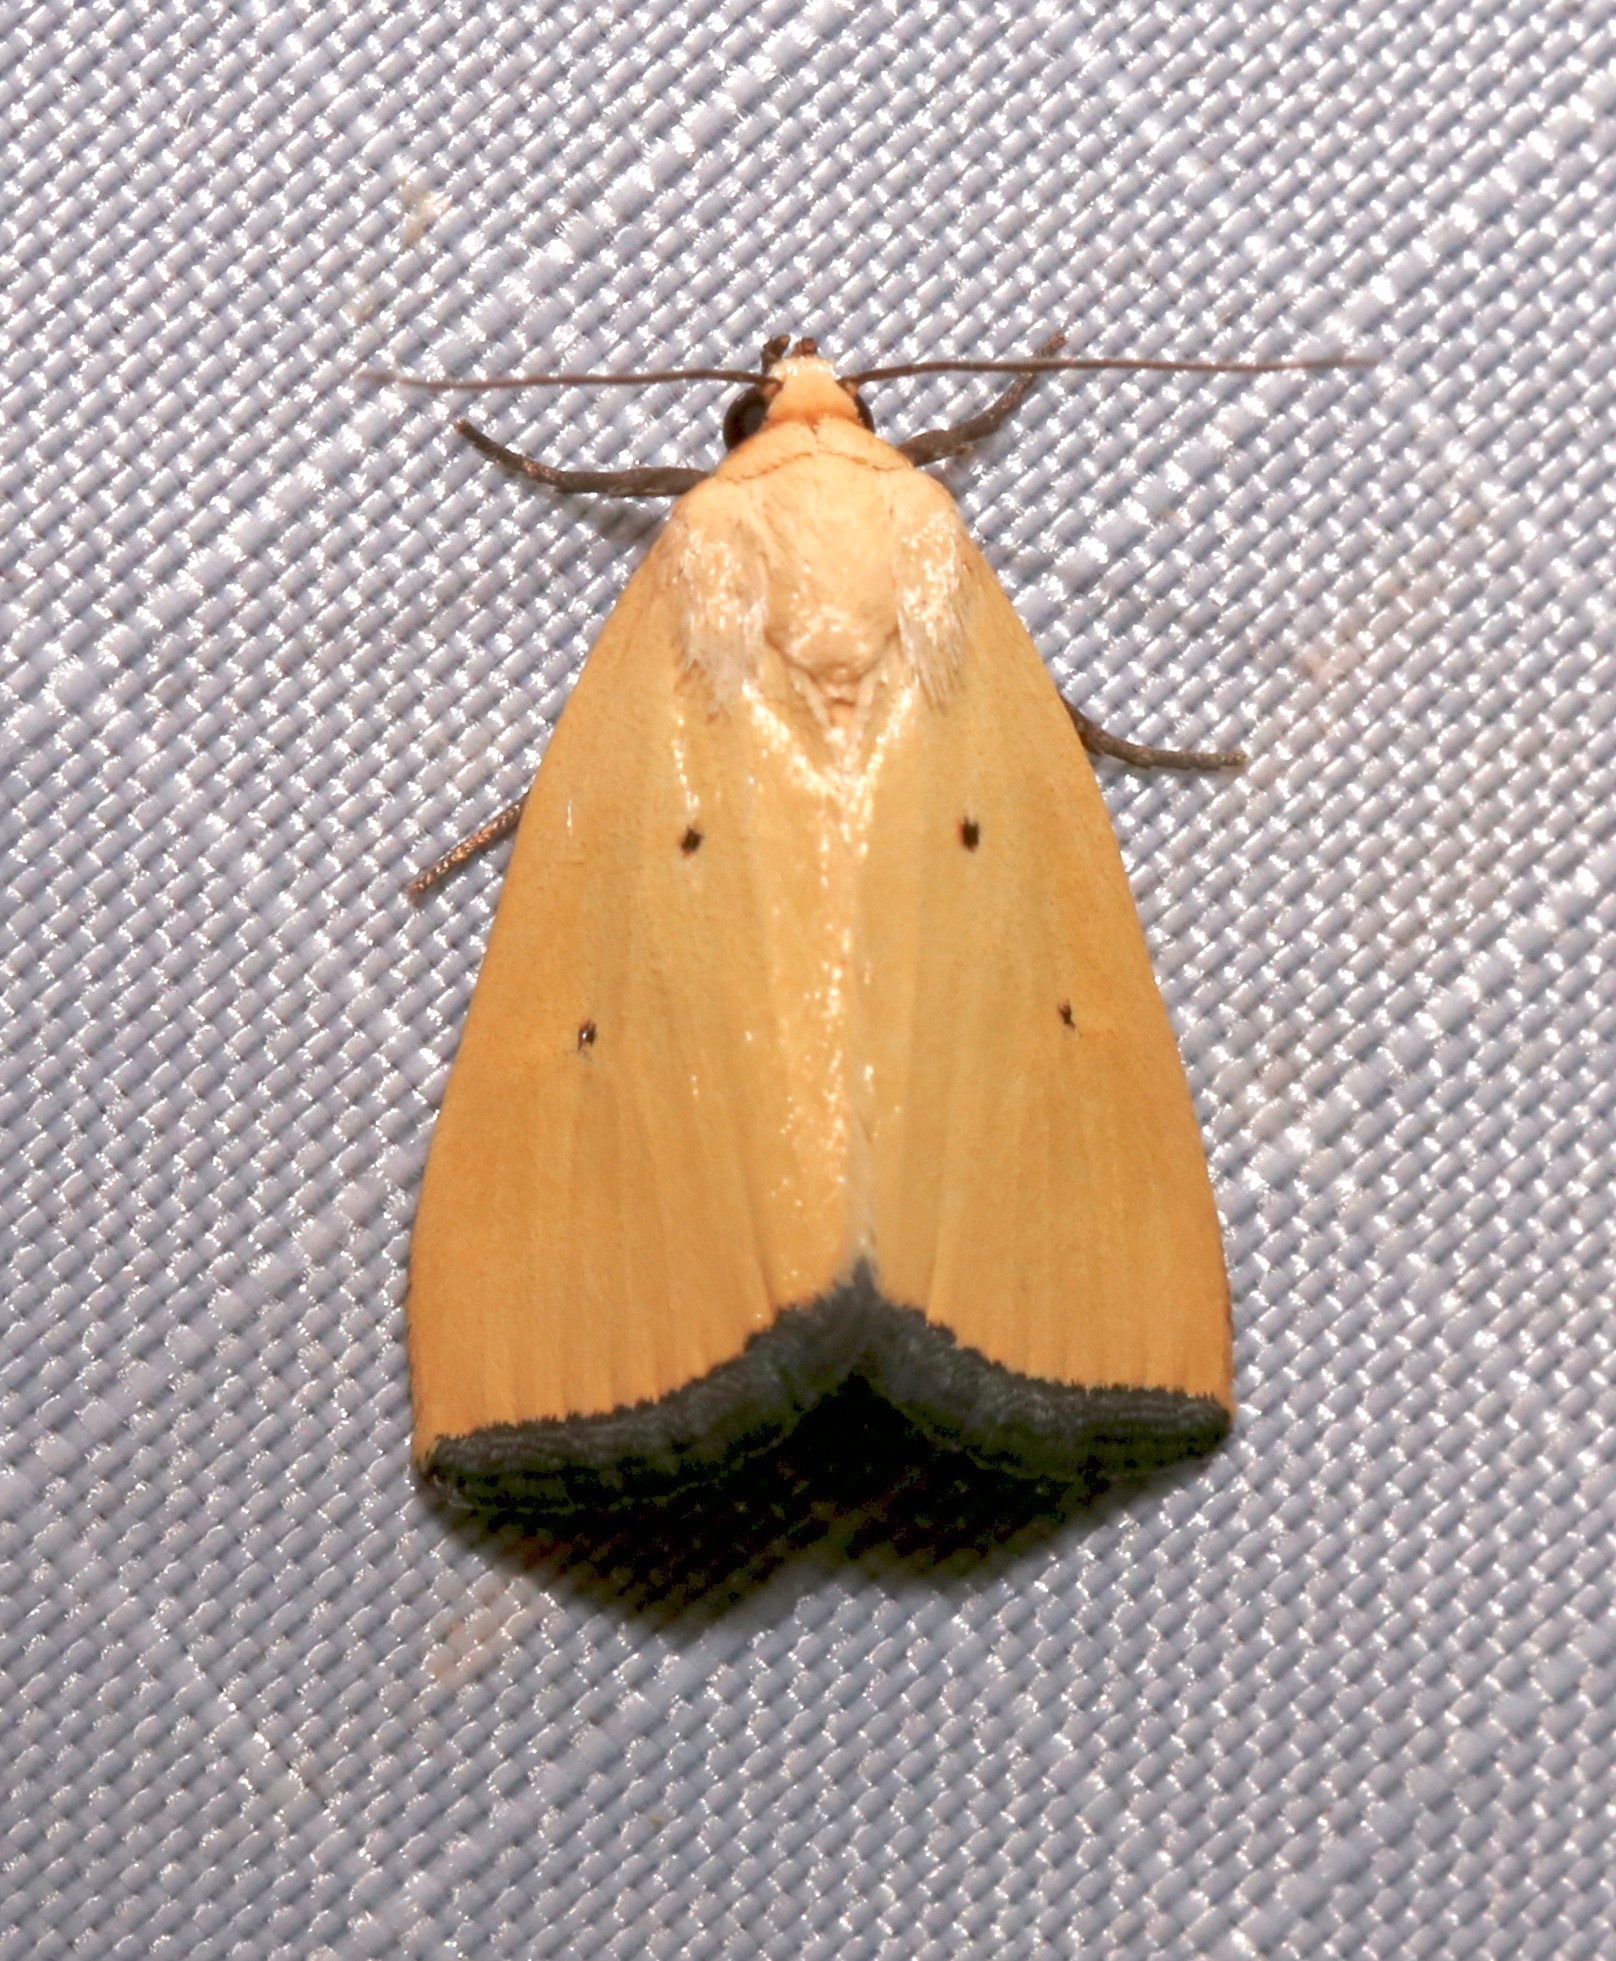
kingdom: Animalia
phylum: Arthropoda
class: Insecta
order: Lepidoptera
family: Noctuidae
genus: Marimatha
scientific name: Marimatha nigrofimbria
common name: Black-bordered lemon moth
